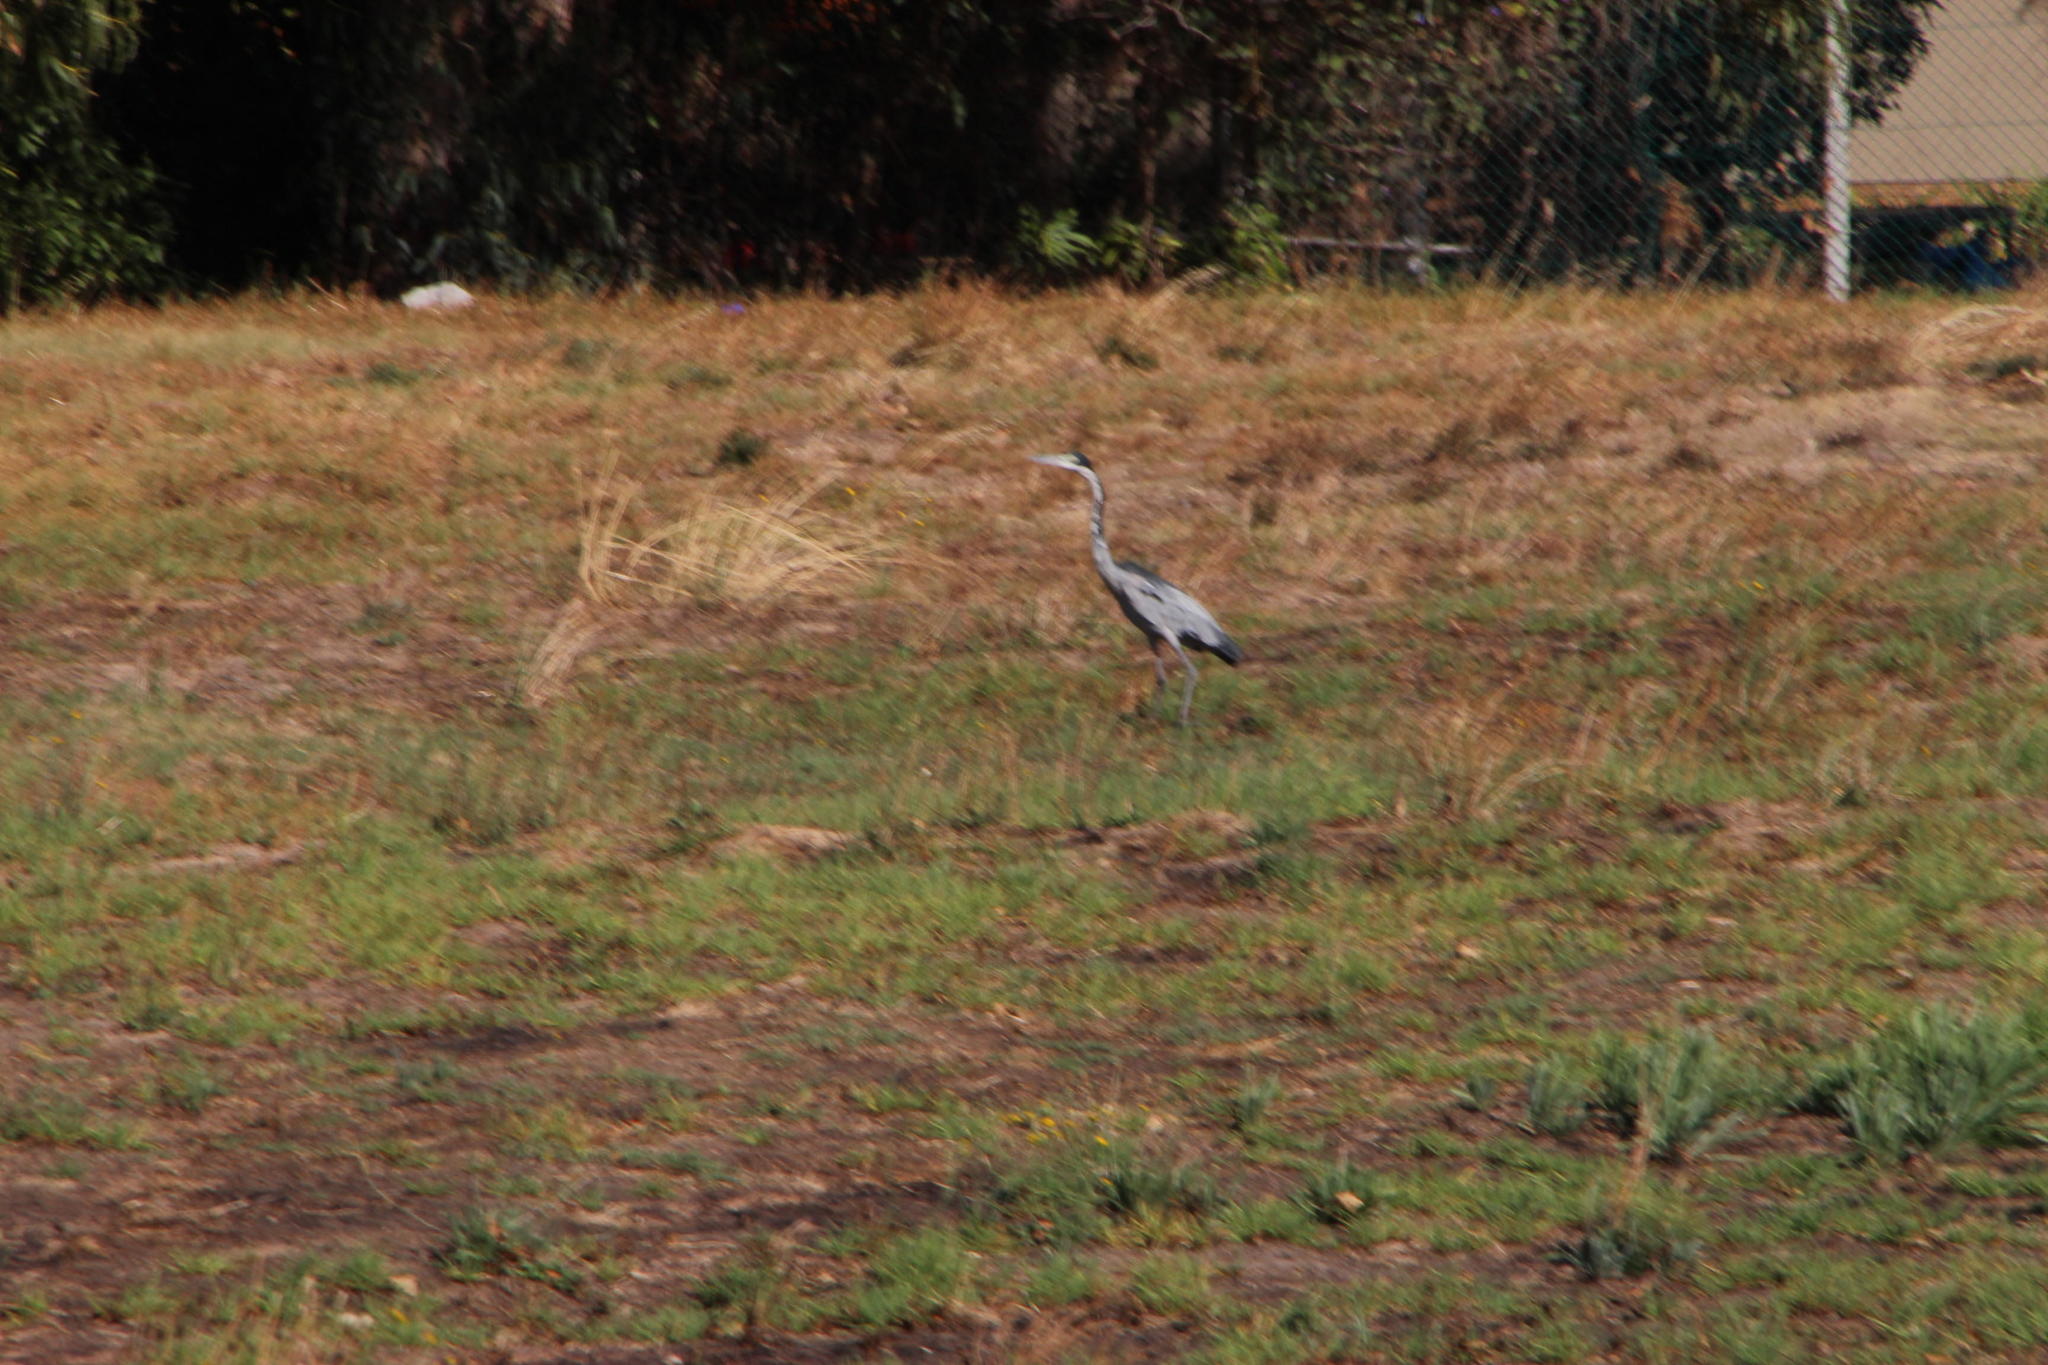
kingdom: Animalia
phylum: Chordata
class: Aves
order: Pelecaniformes
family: Ardeidae
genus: Ardea
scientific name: Ardea melanocephala
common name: Black-headed heron
